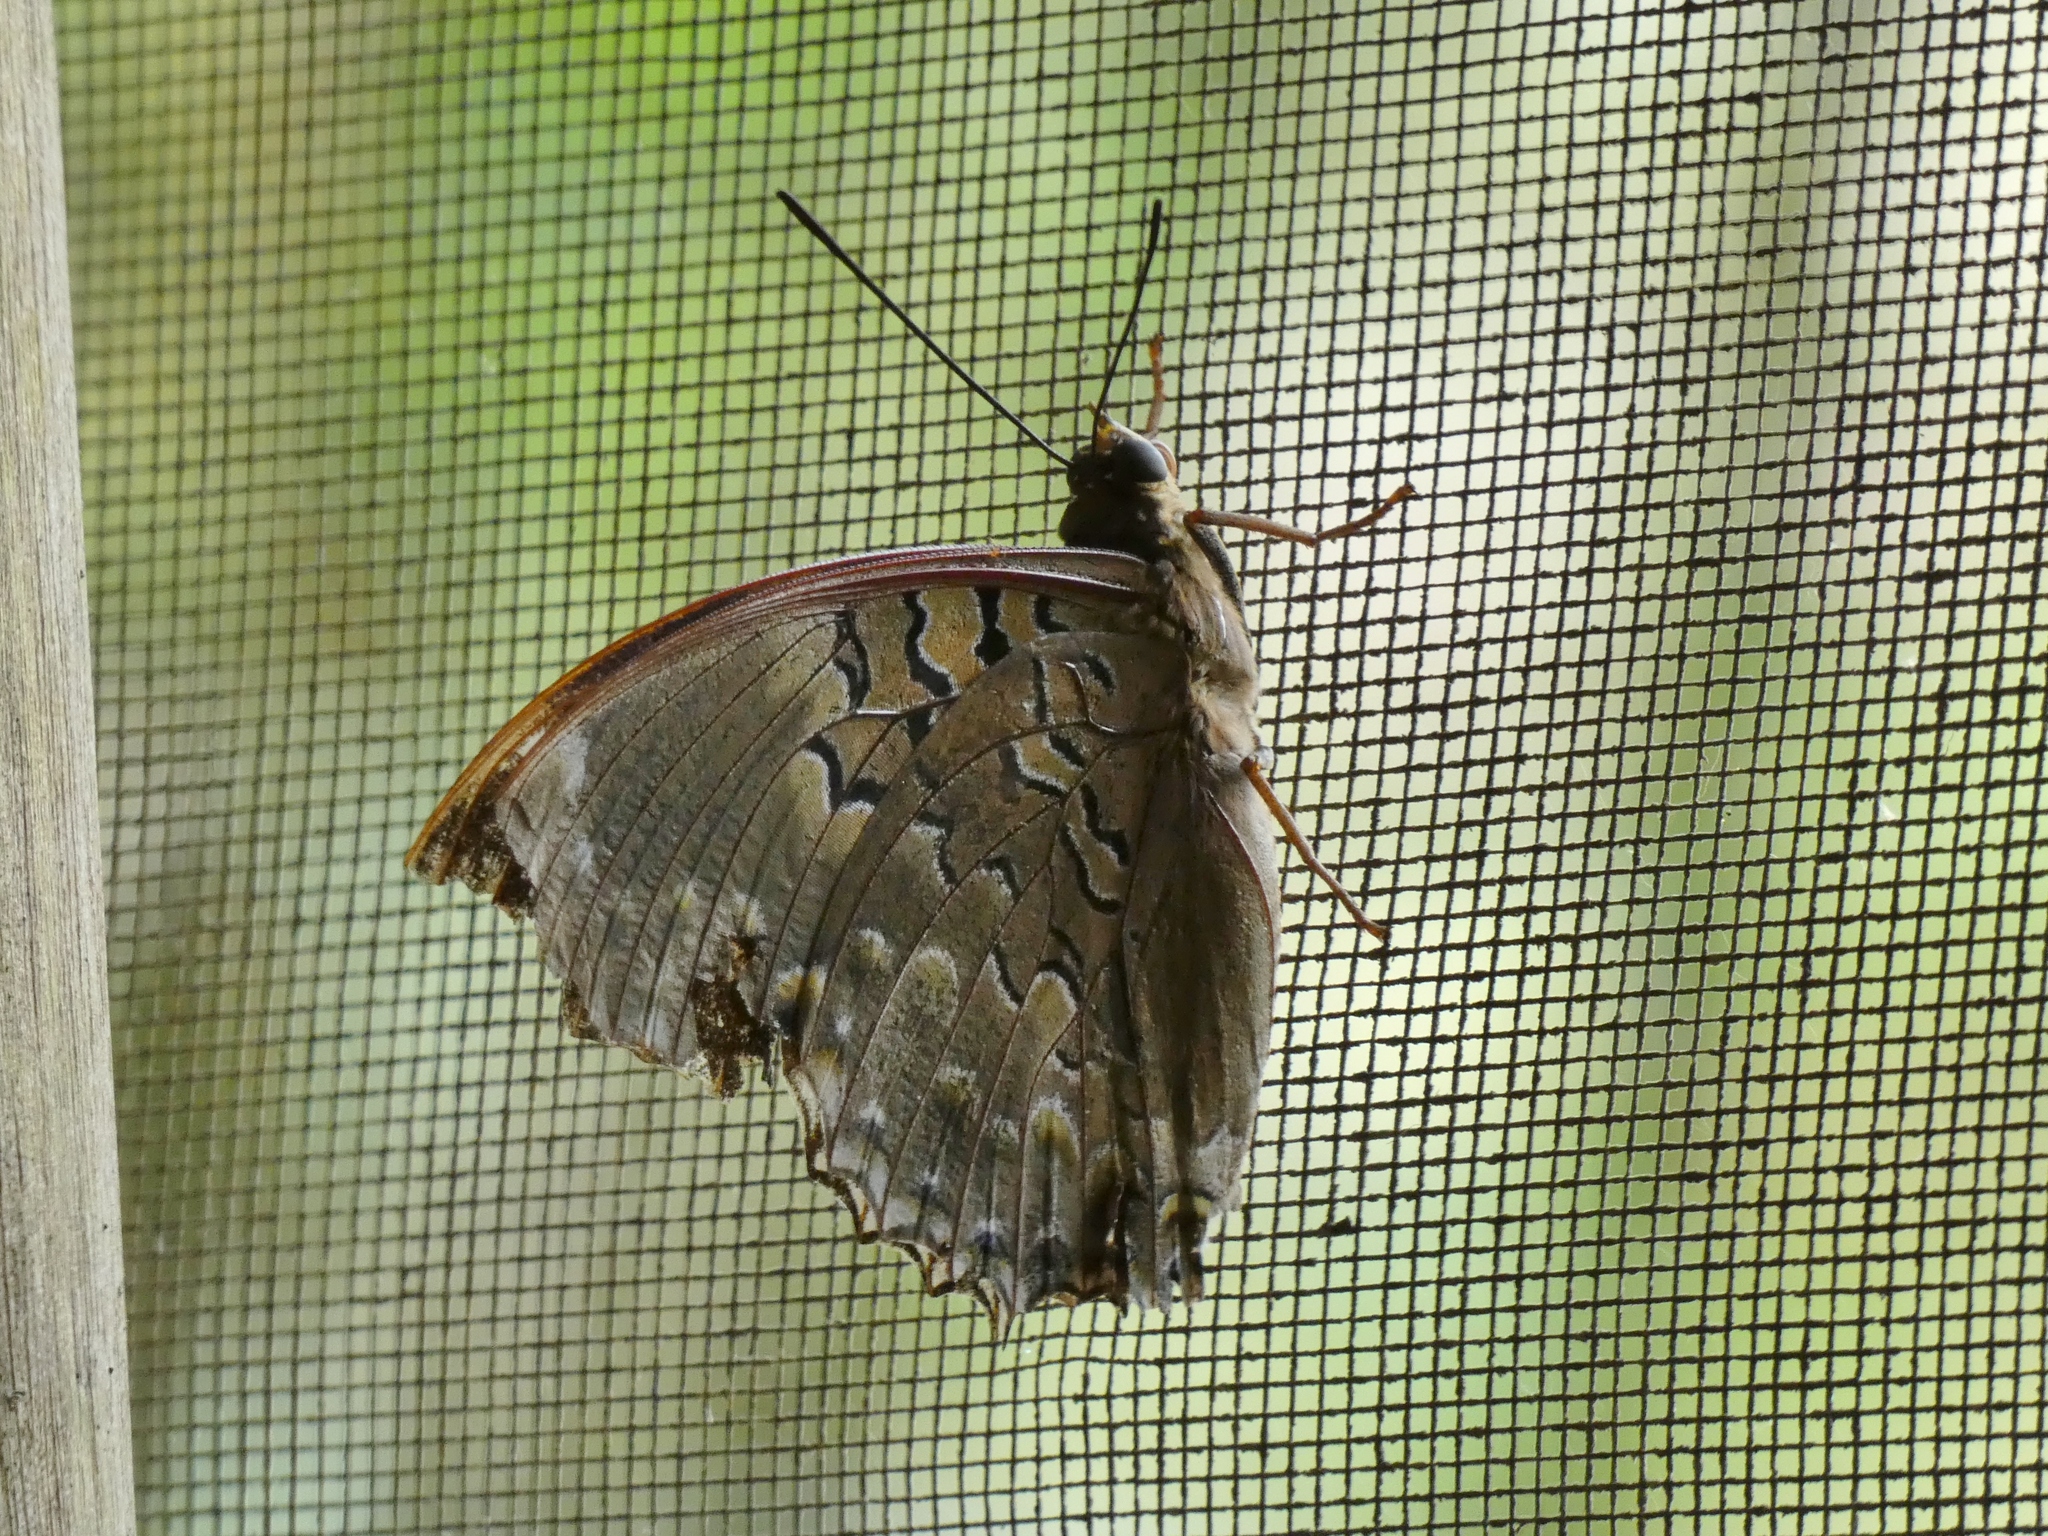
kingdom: Animalia
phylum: Arthropoda
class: Insecta
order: Lepidoptera
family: Nymphalidae
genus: Charaxes
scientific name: Charaxes smaragdalis
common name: Western blue charaxes
